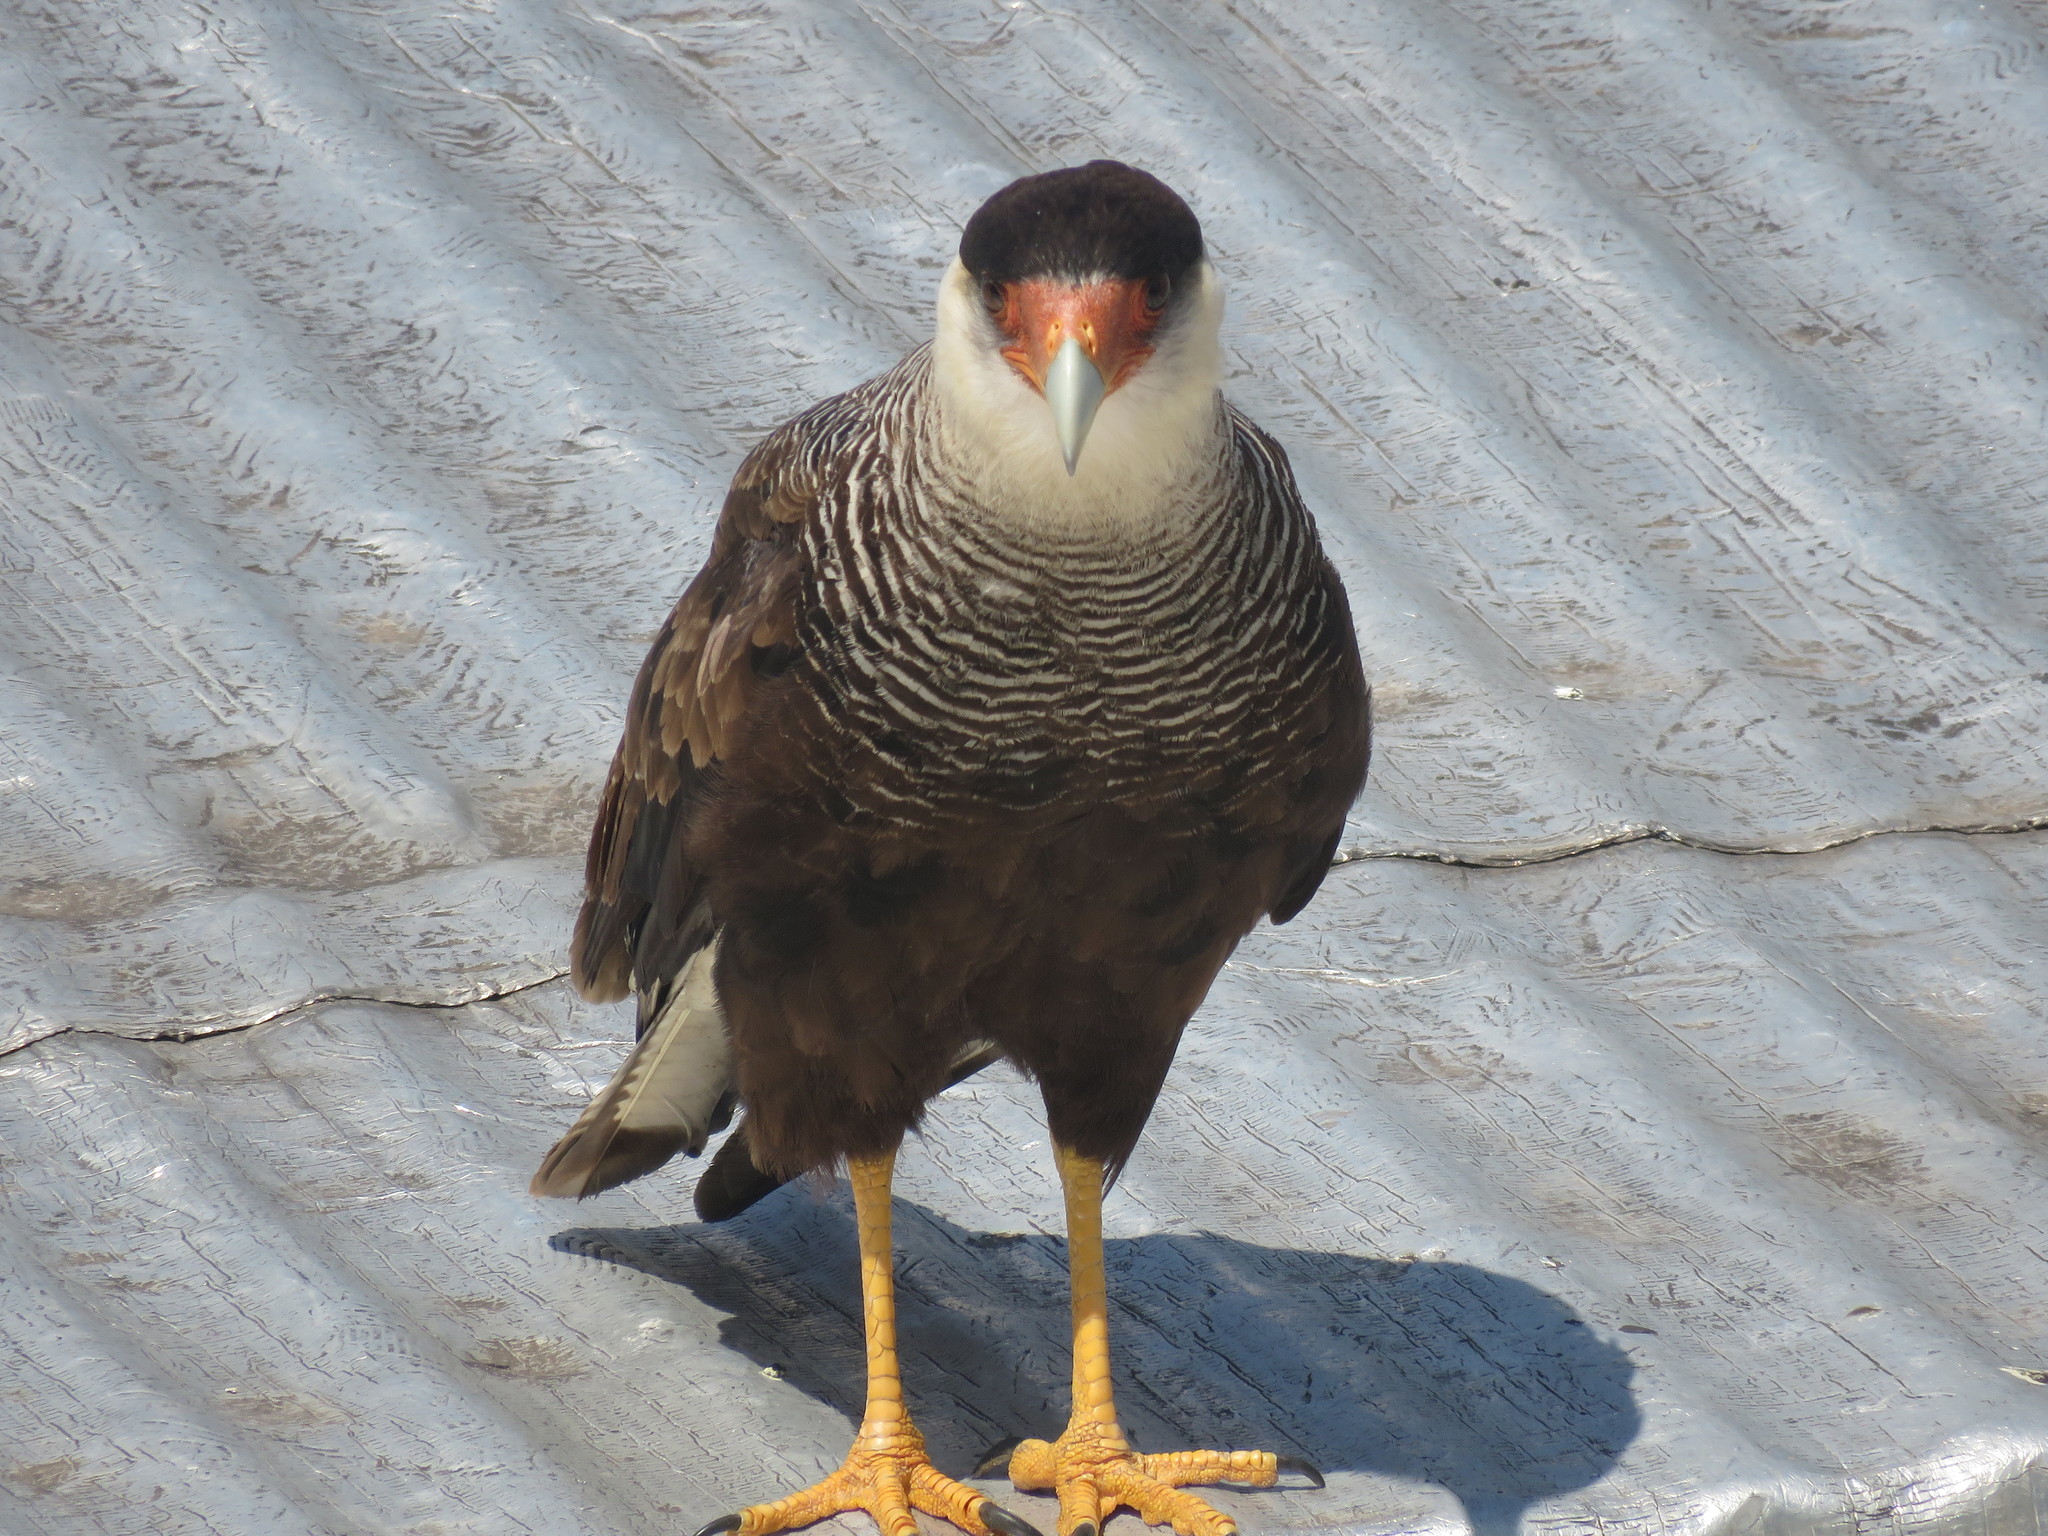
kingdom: Animalia
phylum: Chordata
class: Aves
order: Falconiformes
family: Falconidae
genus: Caracara
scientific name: Caracara plancus
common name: Southern caracara
